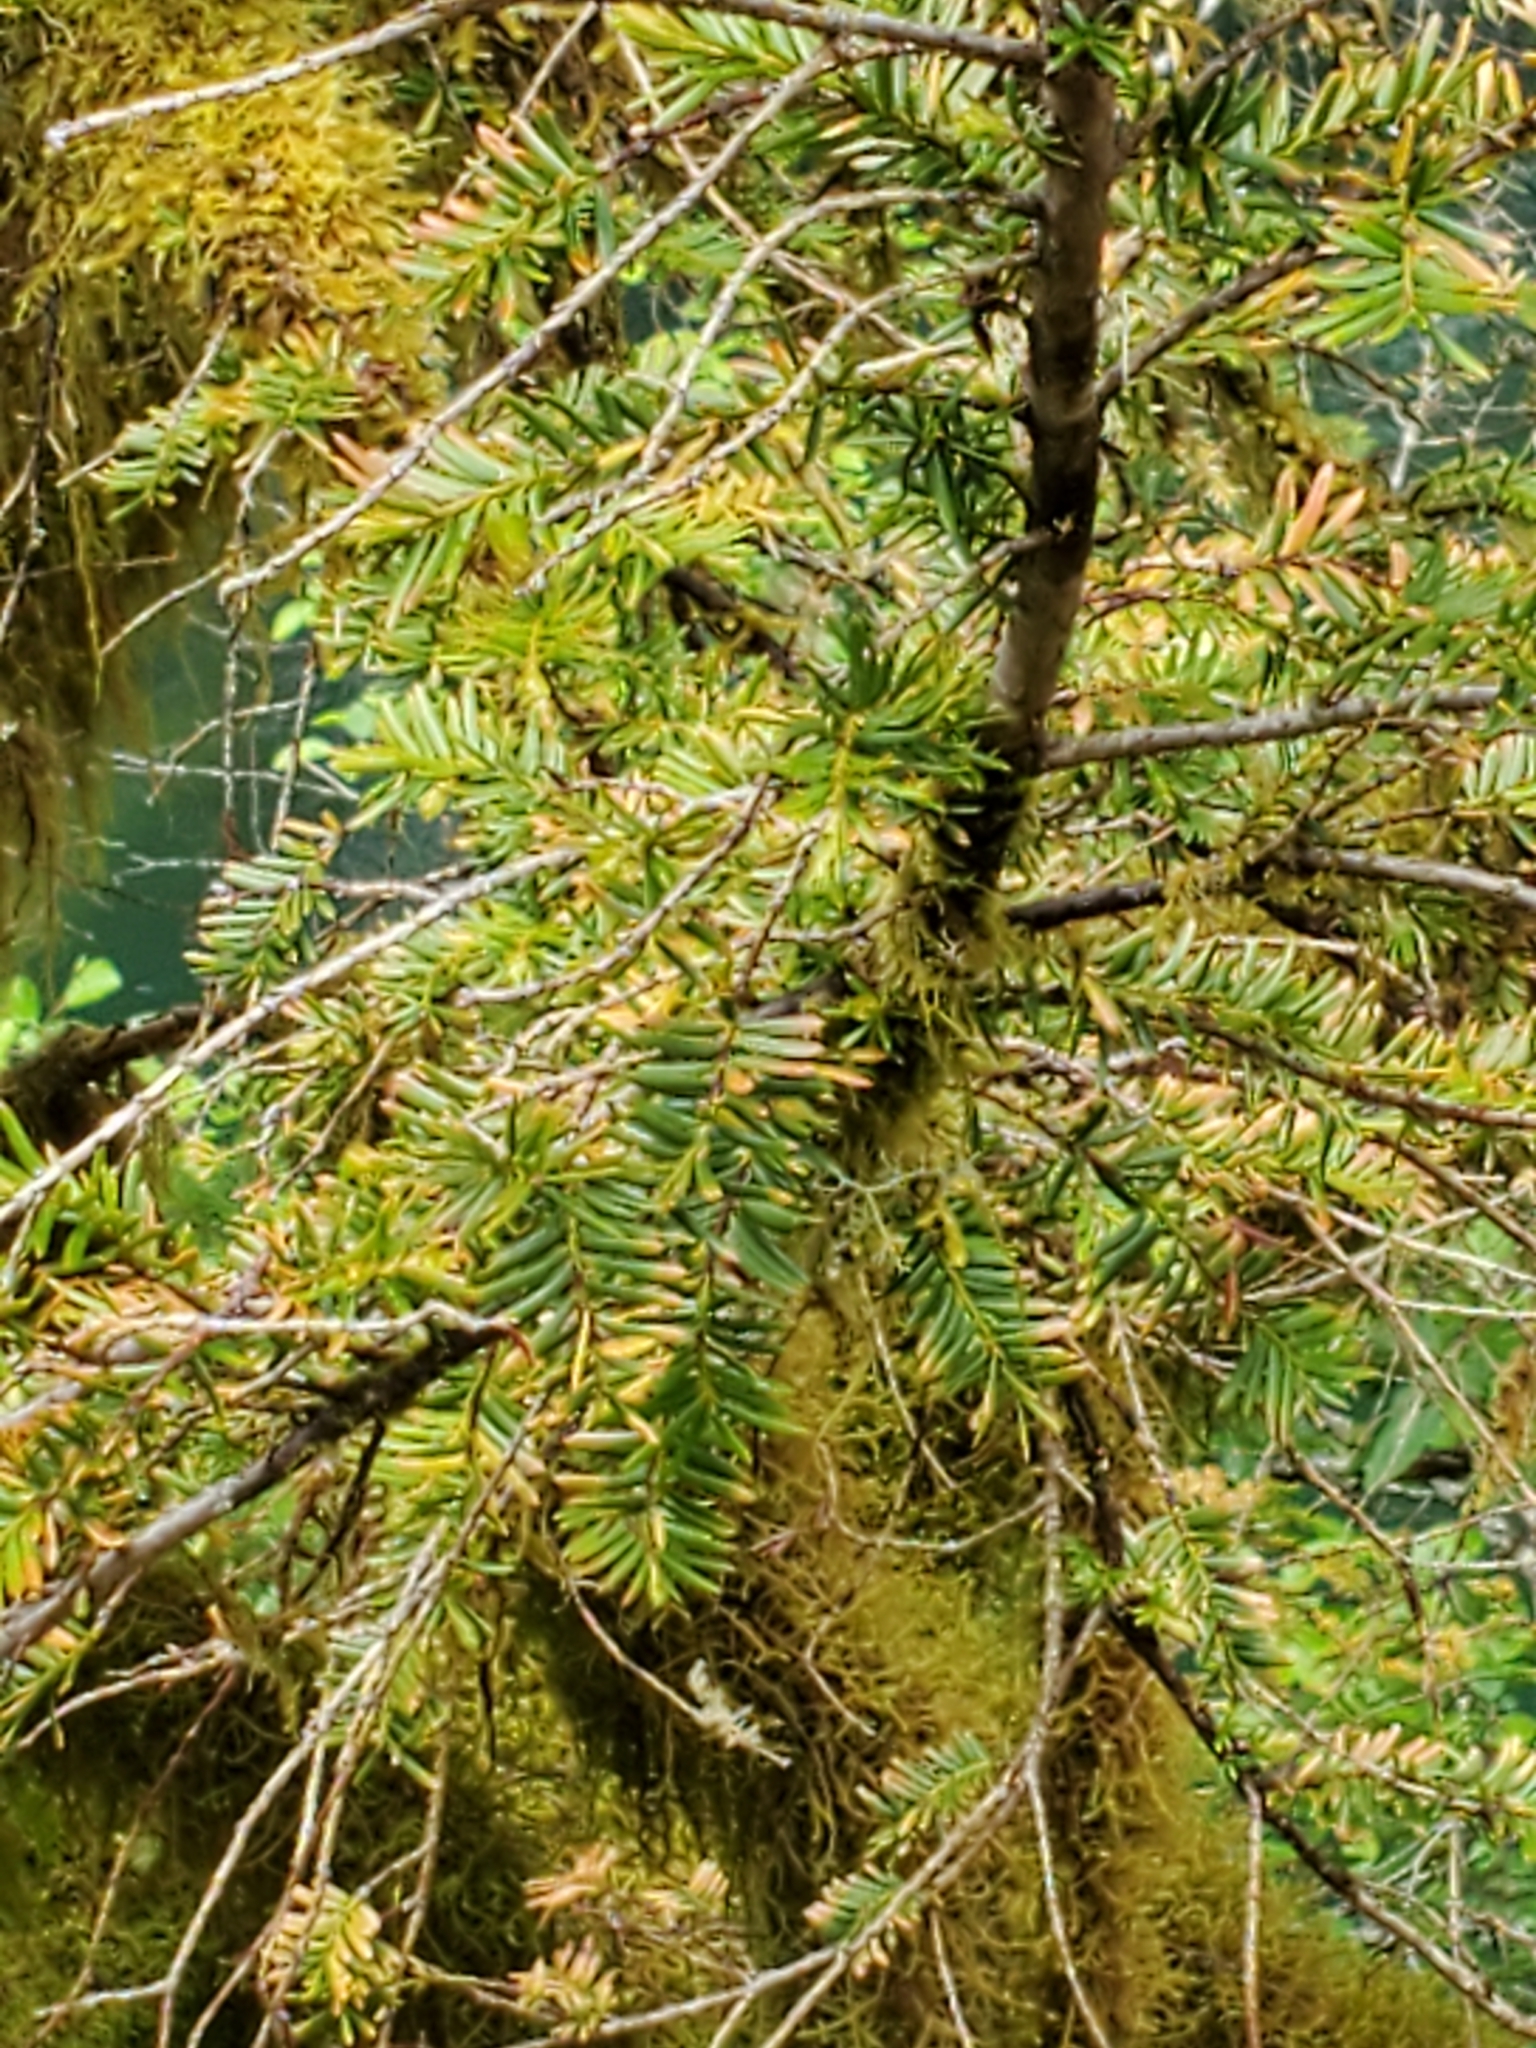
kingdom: Plantae
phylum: Tracheophyta
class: Pinopsida
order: Pinales
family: Taxaceae
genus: Taxus
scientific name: Taxus brevifolia
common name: Pacific yew
